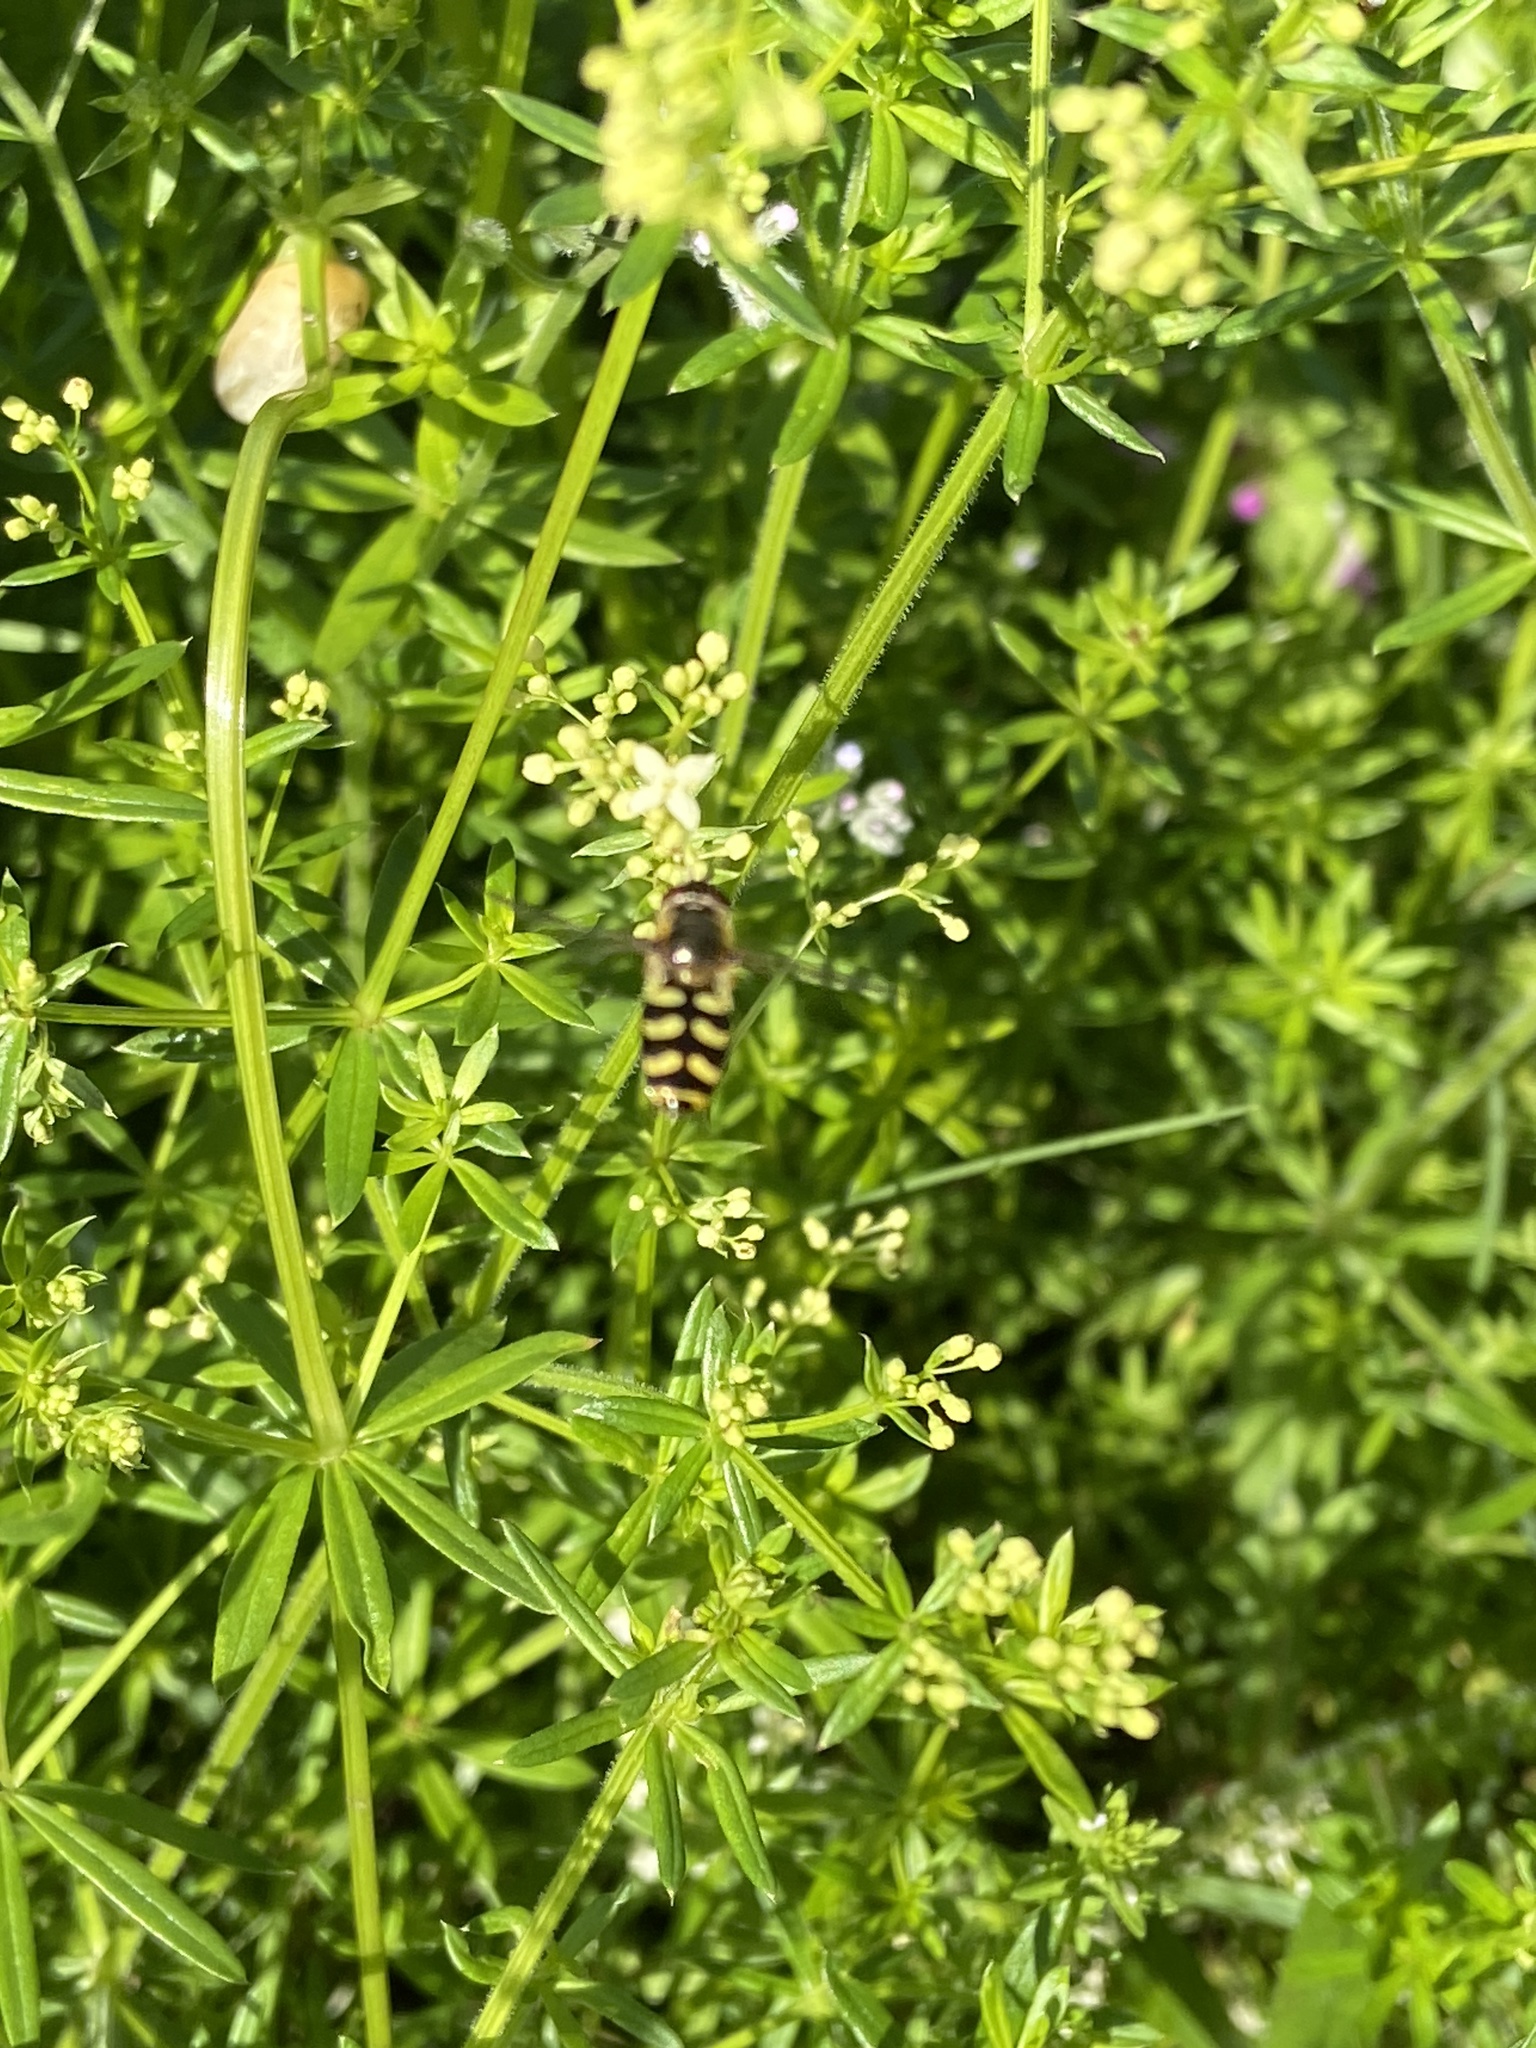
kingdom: Animalia
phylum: Arthropoda
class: Insecta
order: Diptera
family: Syrphidae
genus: Eupeodes
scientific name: Eupeodes
